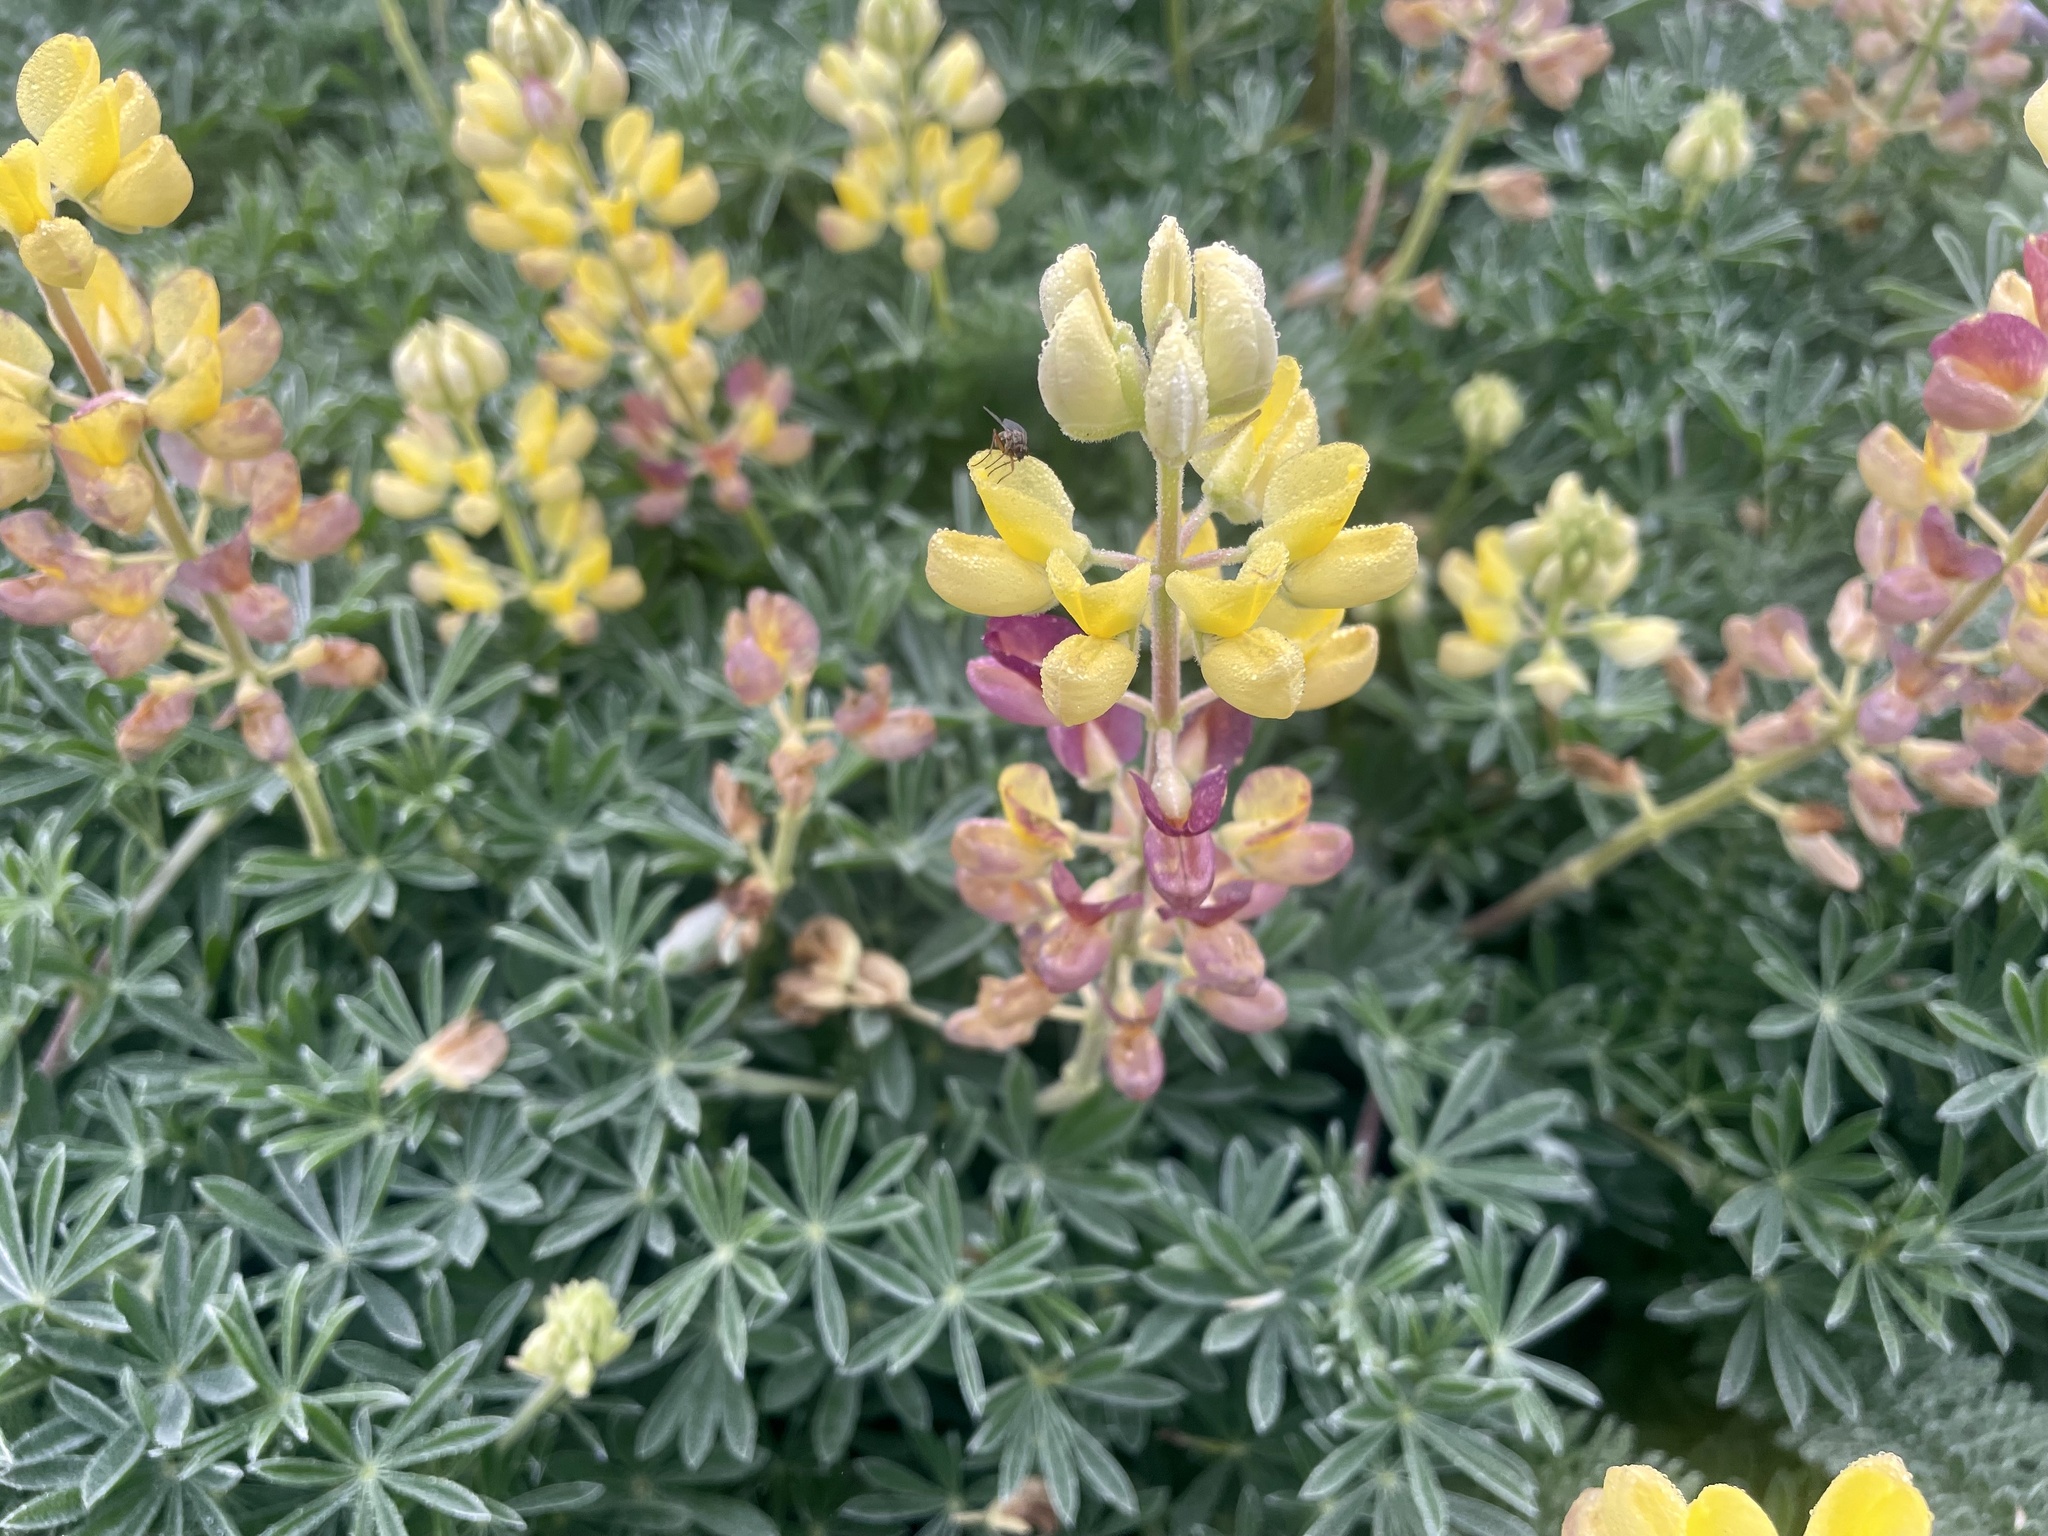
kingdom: Plantae
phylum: Tracheophyta
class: Magnoliopsida
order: Fabales
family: Fabaceae
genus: Lupinus
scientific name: Lupinus arboreus
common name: Yellow bush lupine
